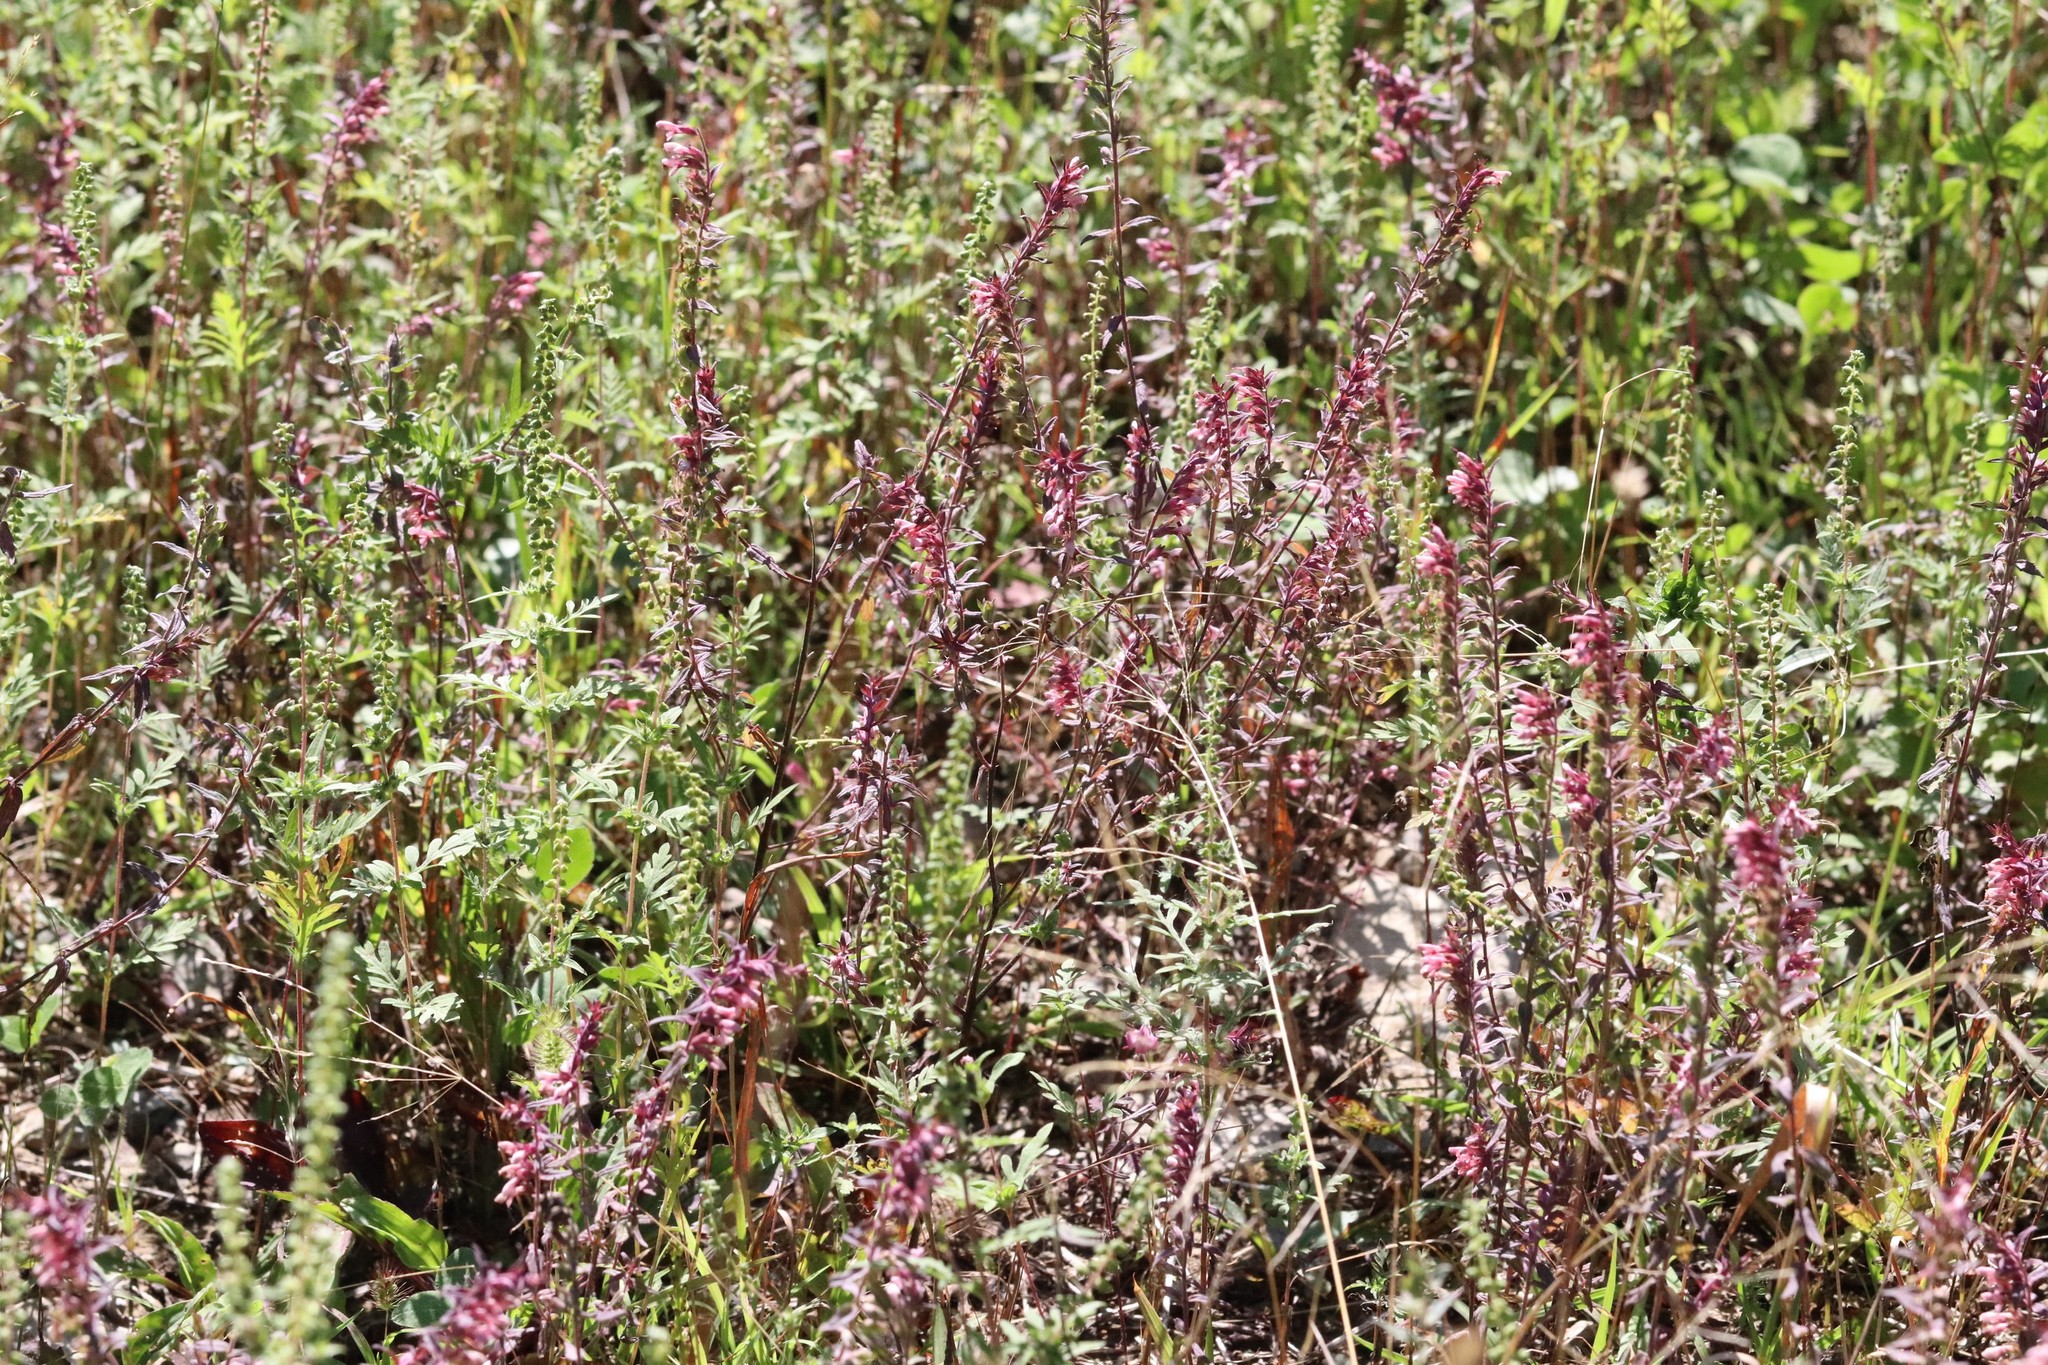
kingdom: Plantae
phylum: Tracheophyta
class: Magnoliopsida
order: Lamiales
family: Orobanchaceae
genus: Odontites
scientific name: Odontites vulgaris
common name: Broomrape
